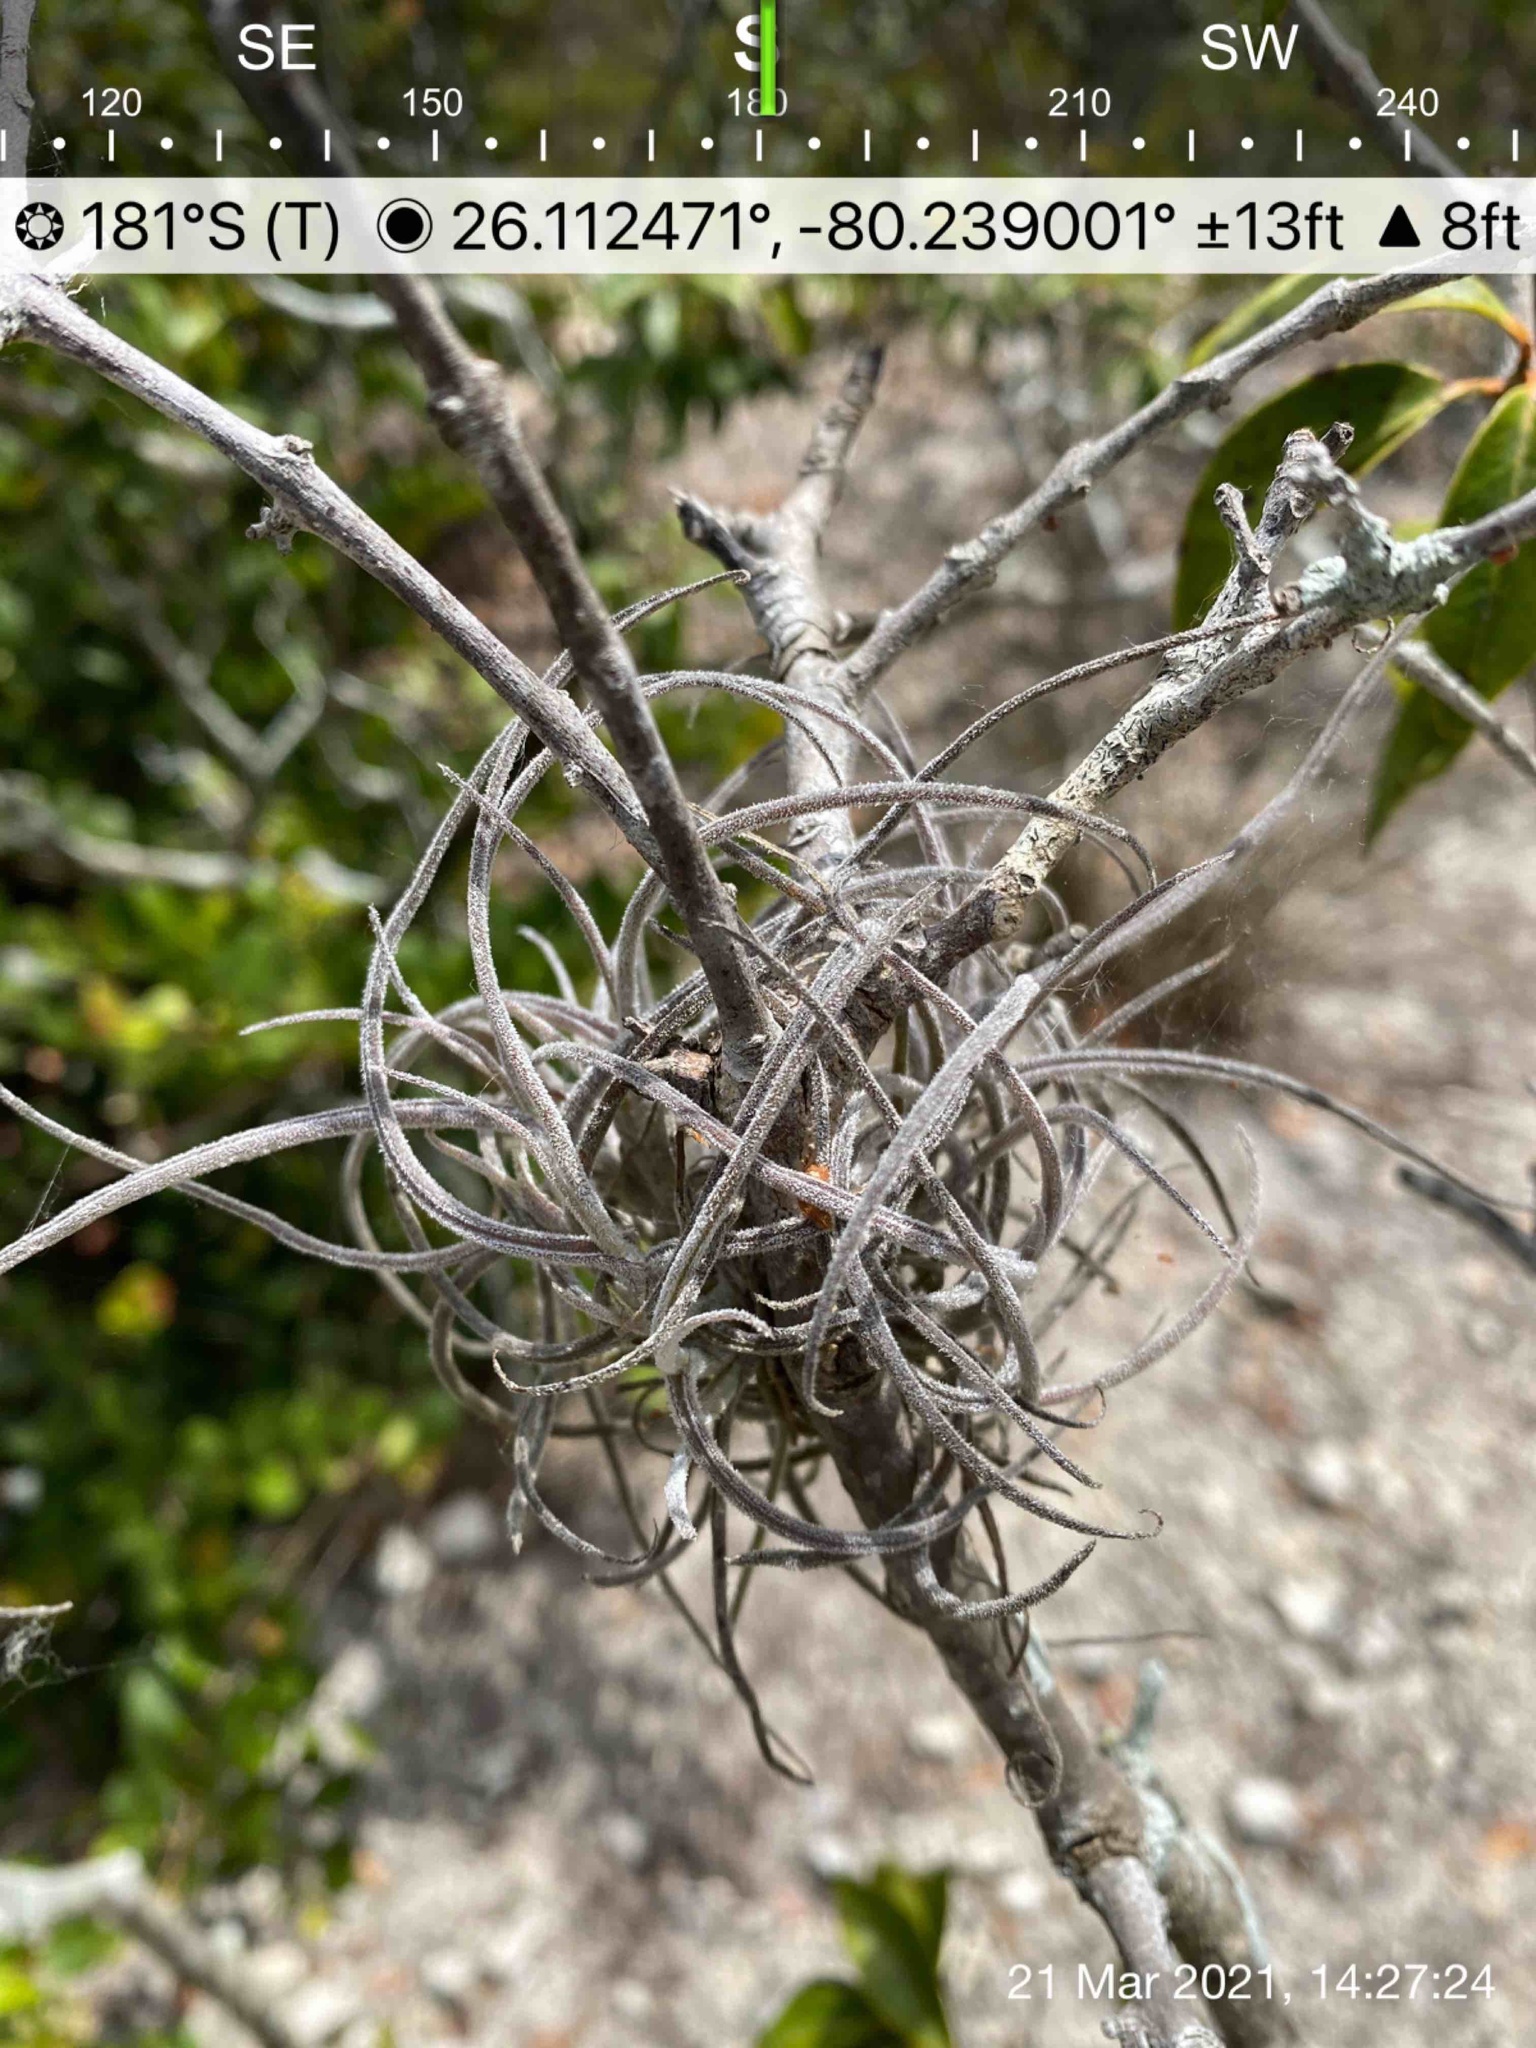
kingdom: Plantae
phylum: Tracheophyta
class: Liliopsida
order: Poales
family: Bromeliaceae
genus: Tillandsia
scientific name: Tillandsia recurvata
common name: Small ballmoss
